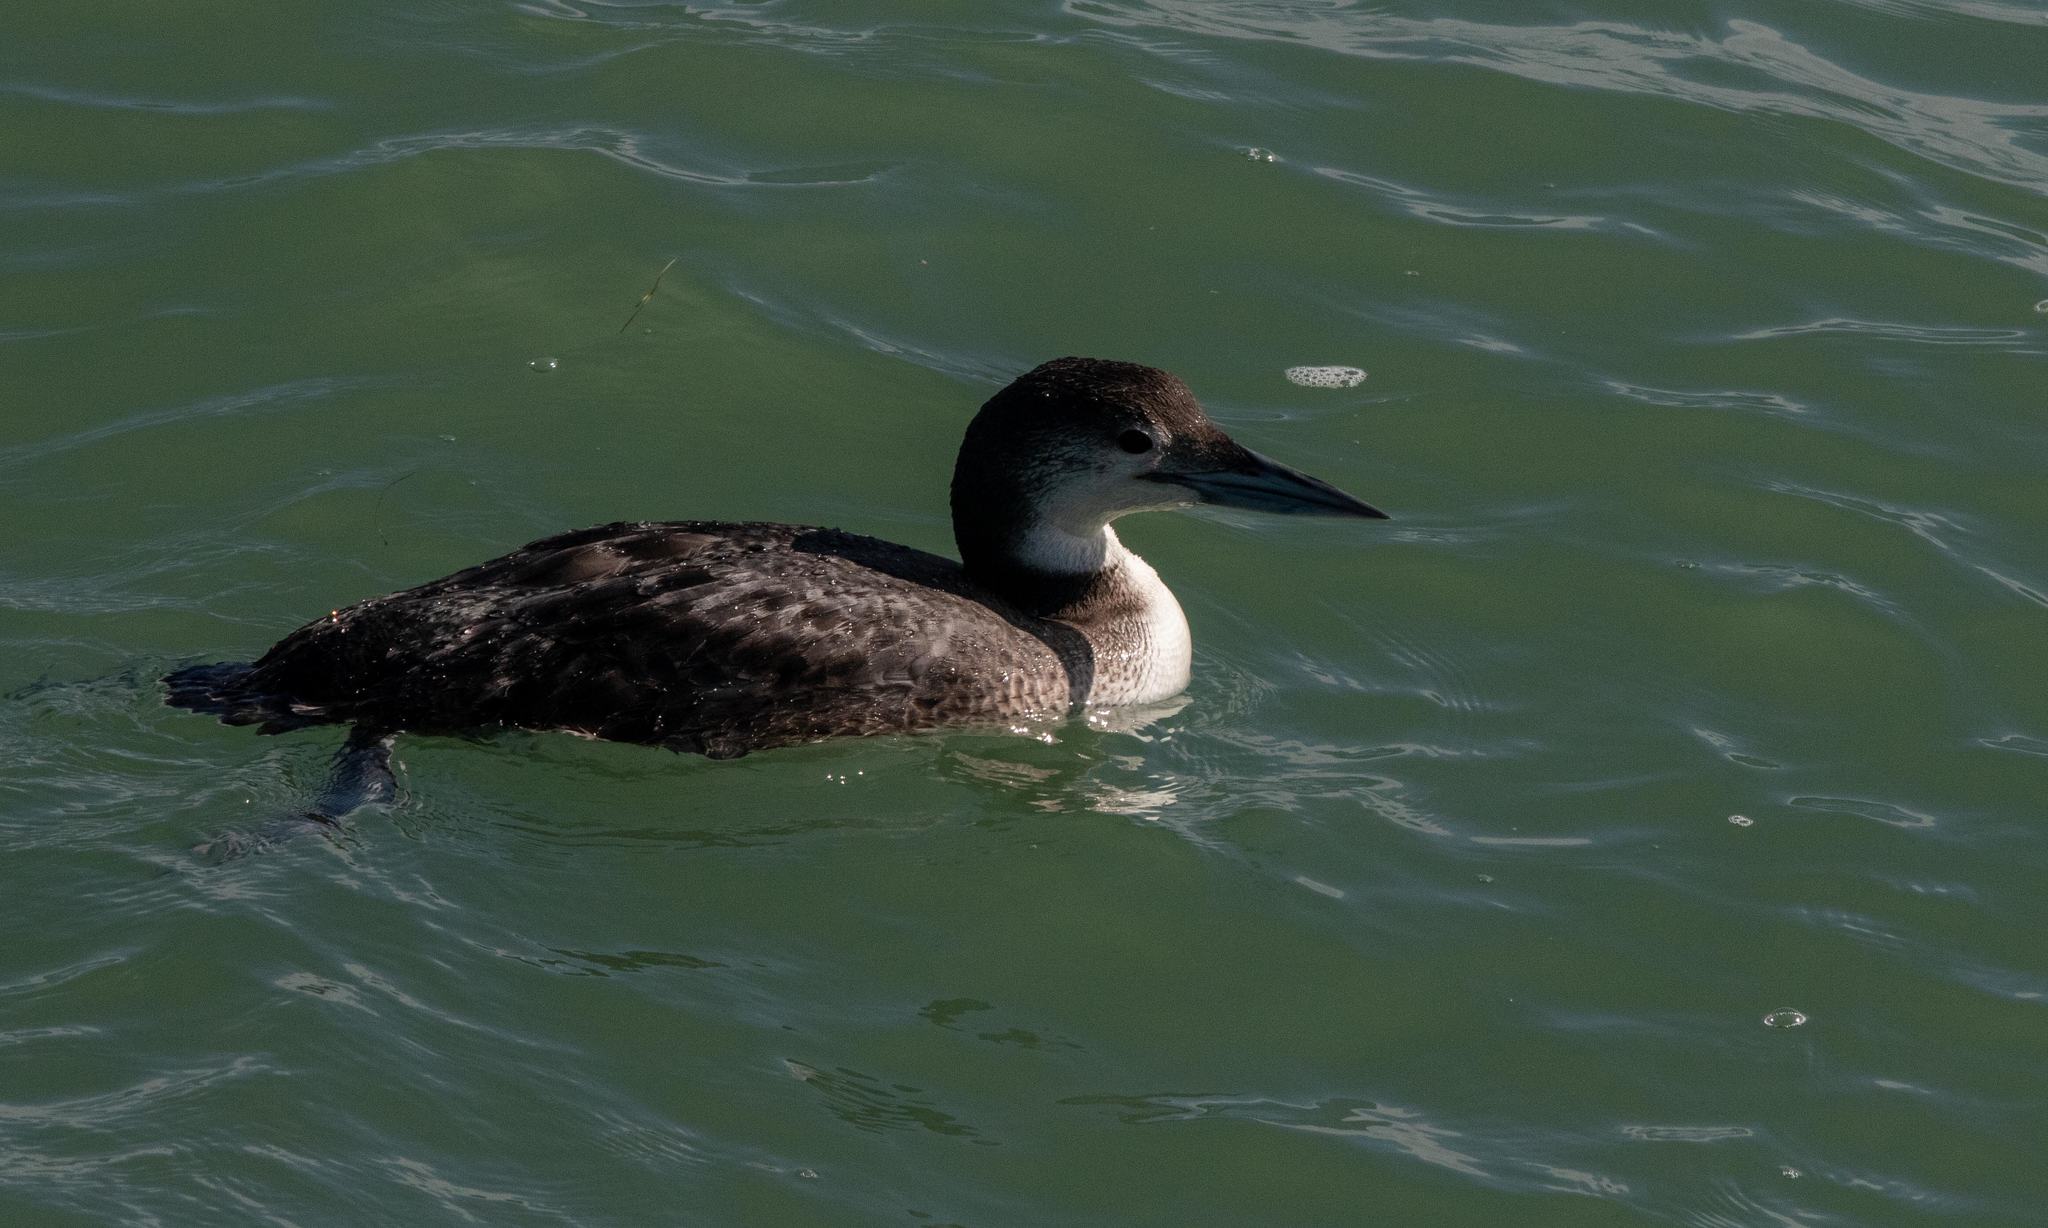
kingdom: Animalia
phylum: Chordata
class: Aves
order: Gaviiformes
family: Gaviidae
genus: Gavia
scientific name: Gavia immer
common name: Common loon
